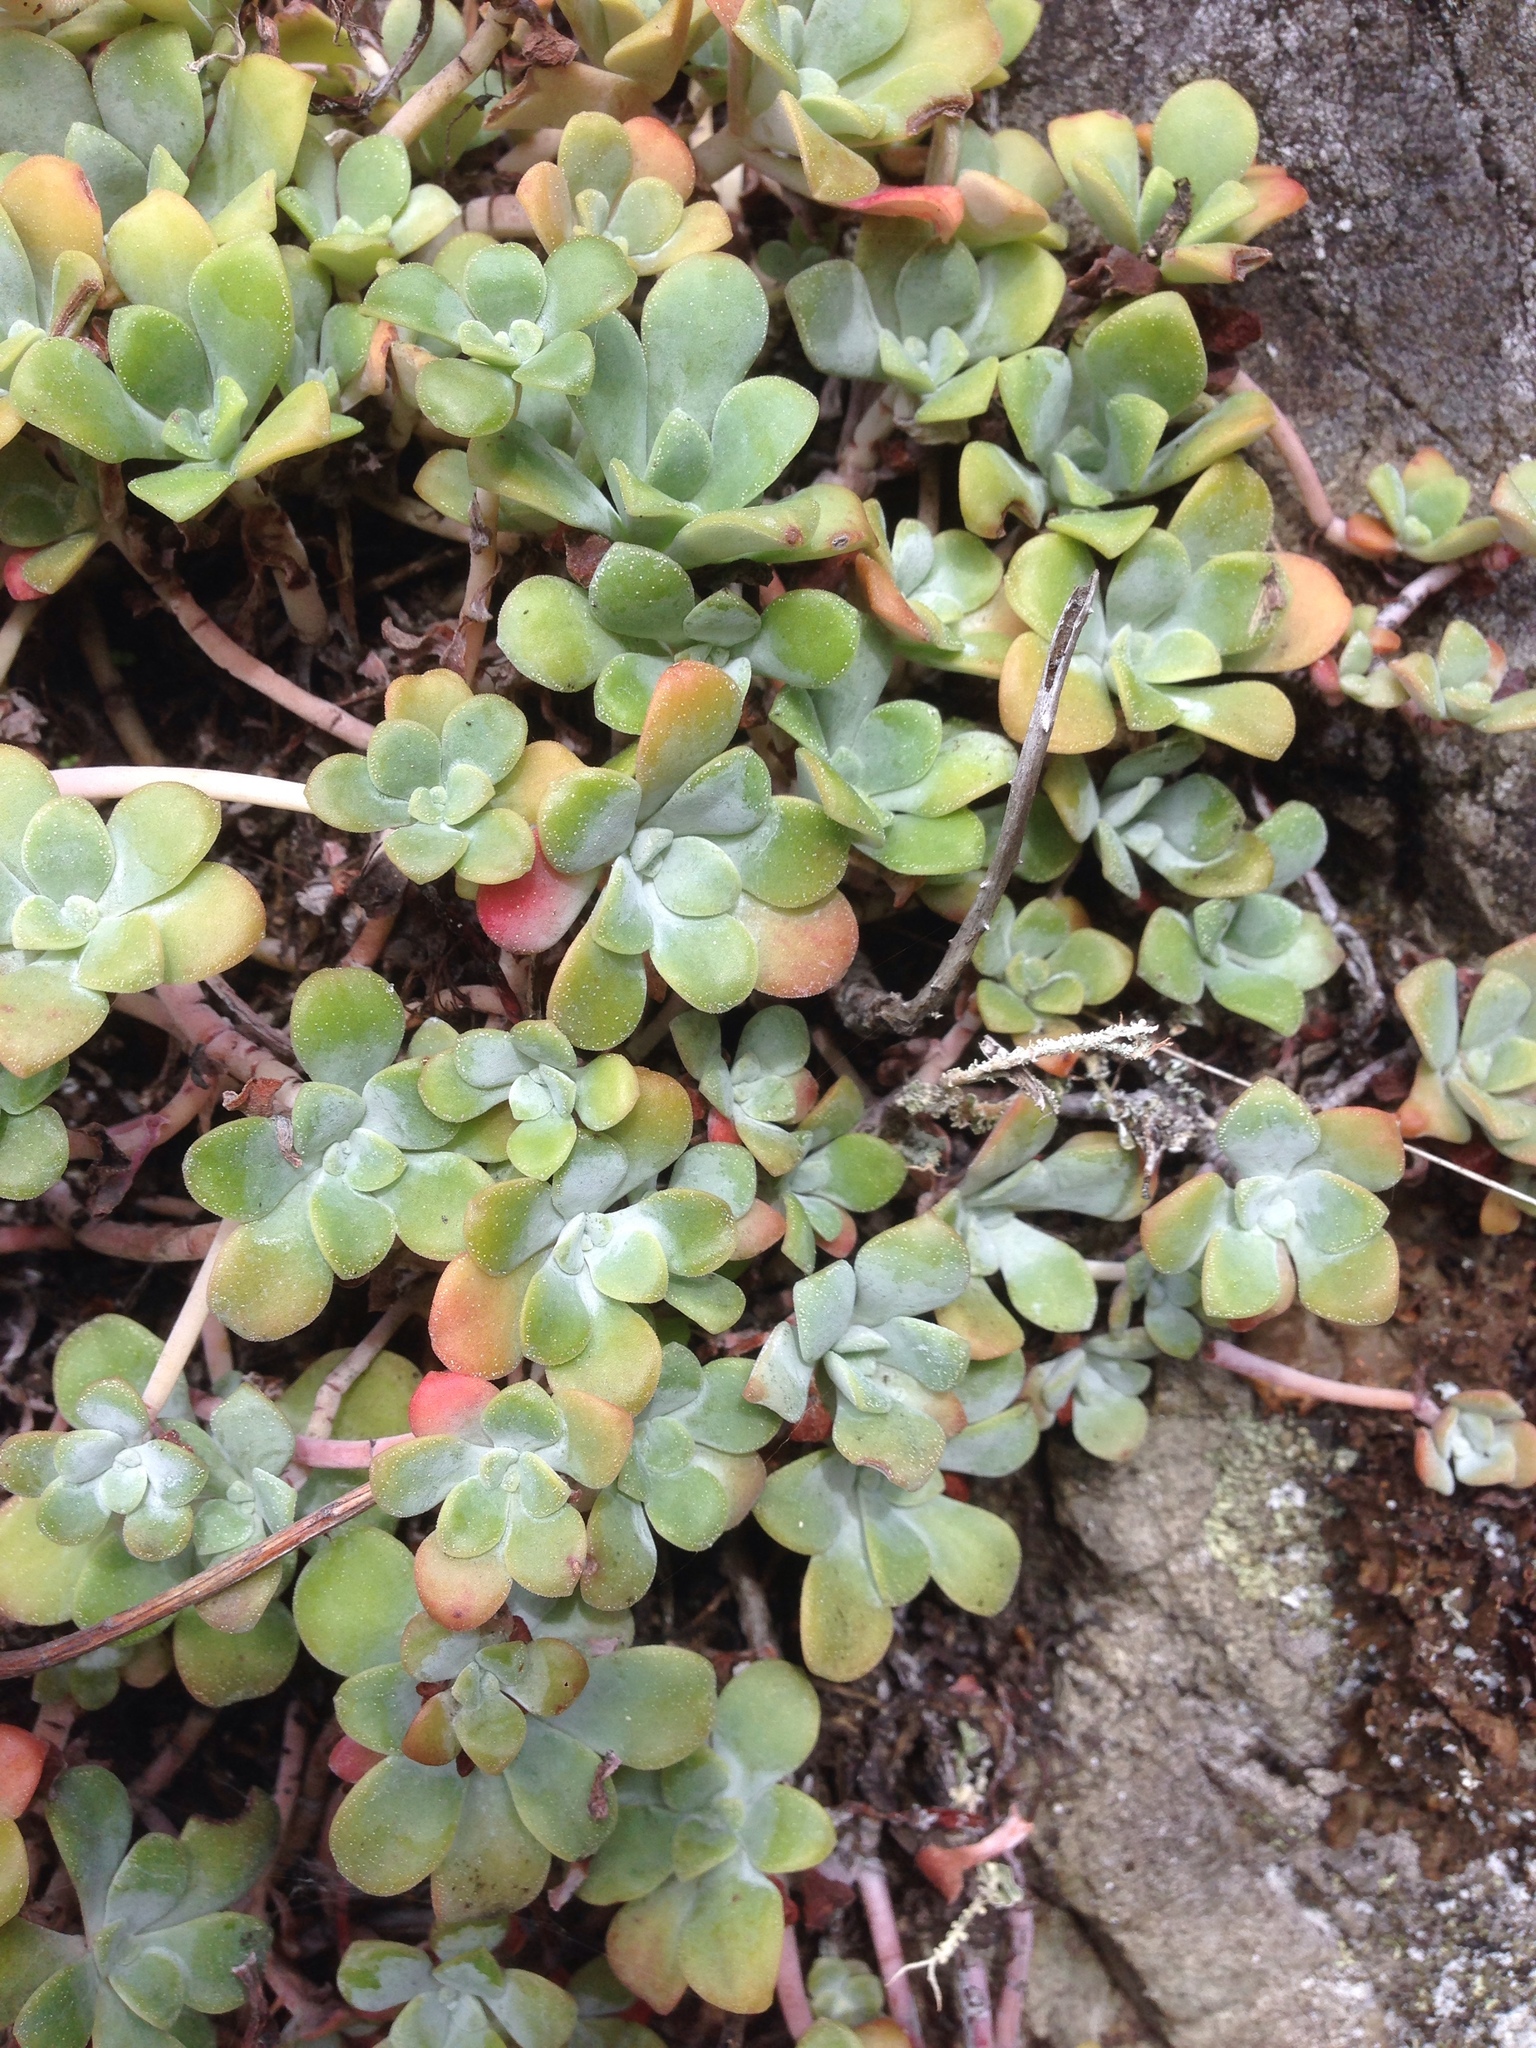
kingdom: Plantae
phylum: Tracheophyta
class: Magnoliopsida
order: Saxifragales
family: Crassulaceae
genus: Sedum
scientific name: Sedum spathulifolium
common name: Colorado stonecrop
